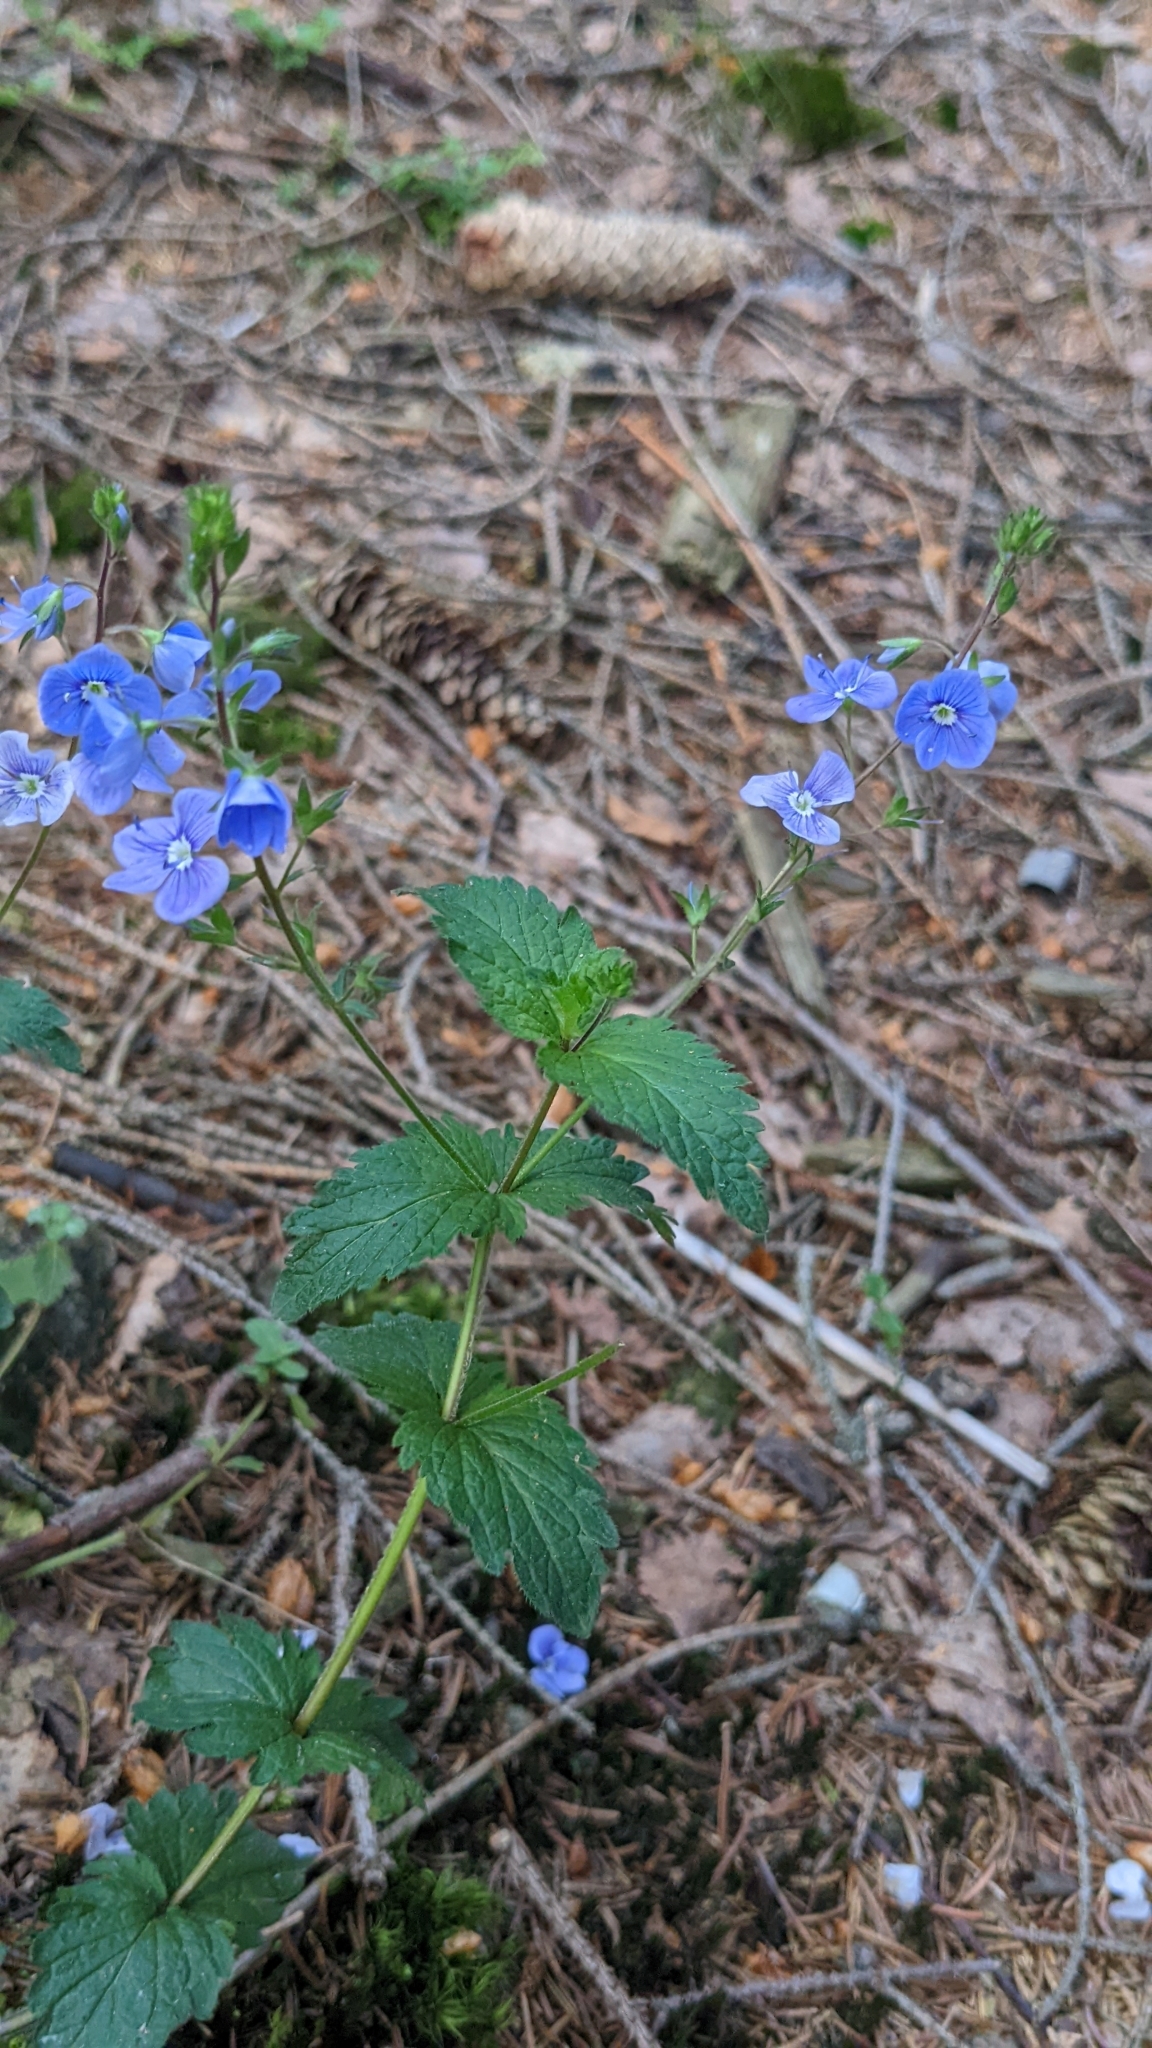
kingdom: Plantae
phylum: Tracheophyta
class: Magnoliopsida
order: Lamiales
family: Plantaginaceae
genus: Veronica
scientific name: Veronica chamaedrys
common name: Germander speedwell
